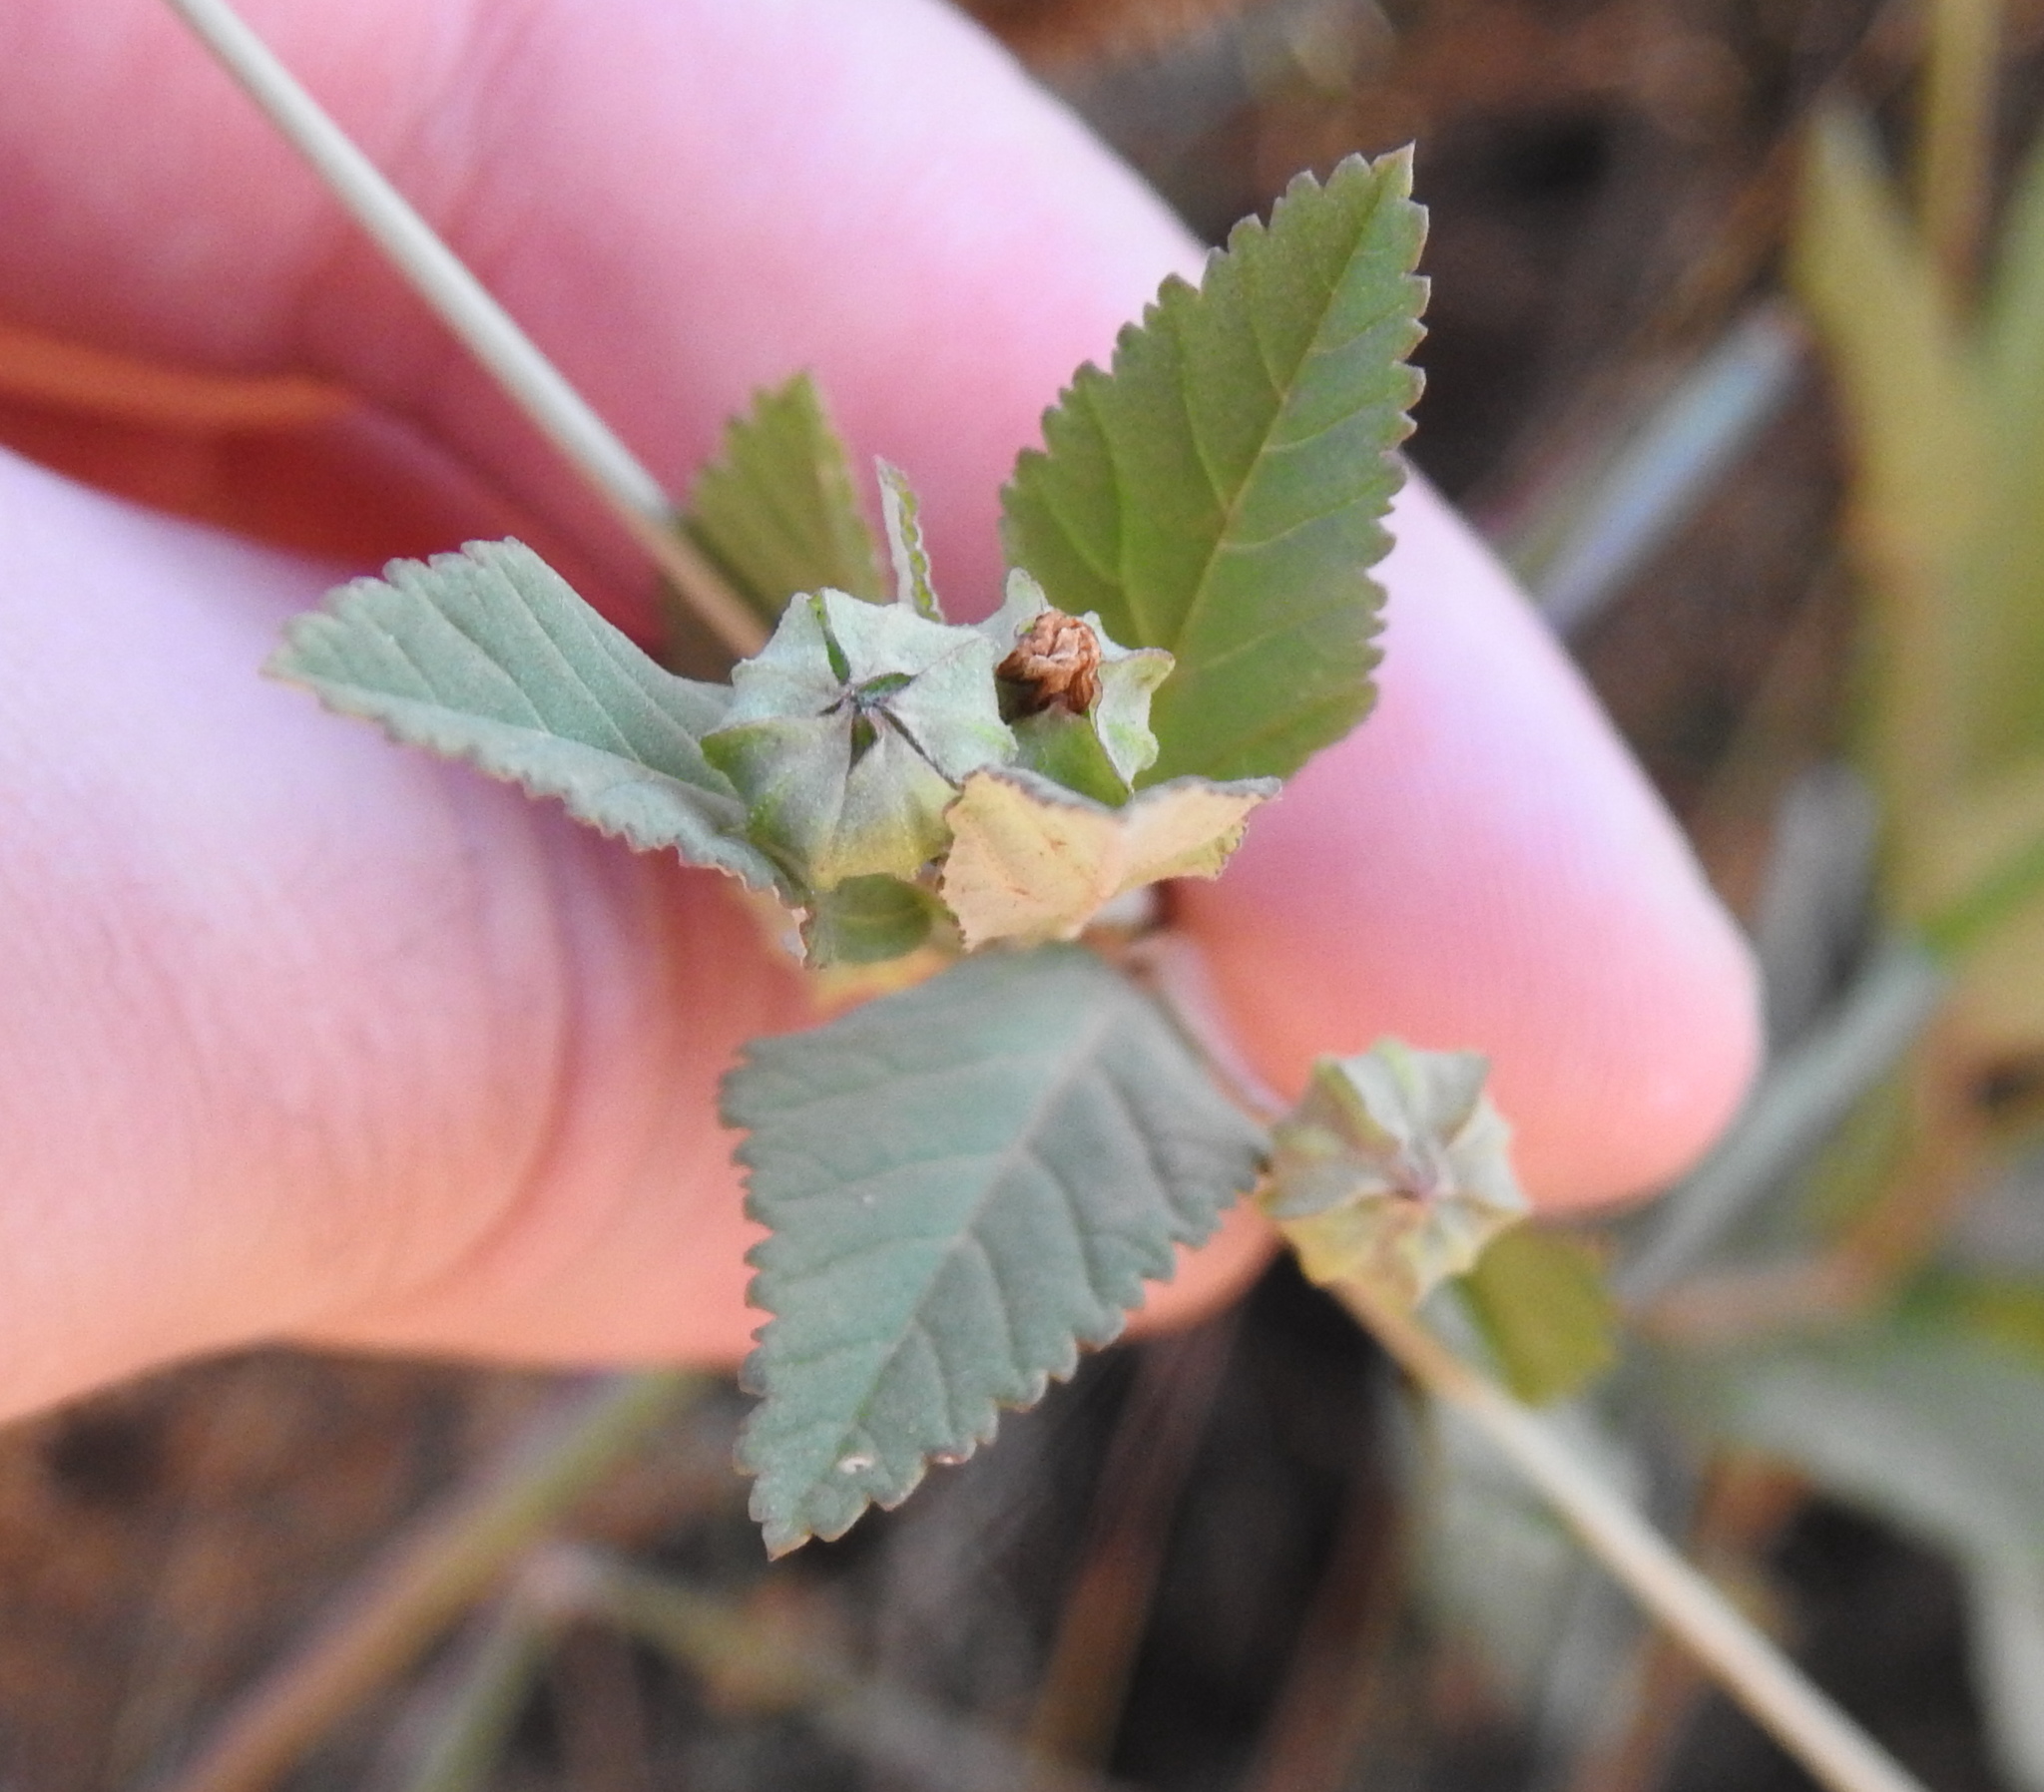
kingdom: Plantae
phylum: Tracheophyta
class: Magnoliopsida
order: Malvales
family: Malvaceae
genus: Sida
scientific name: Sida alba
